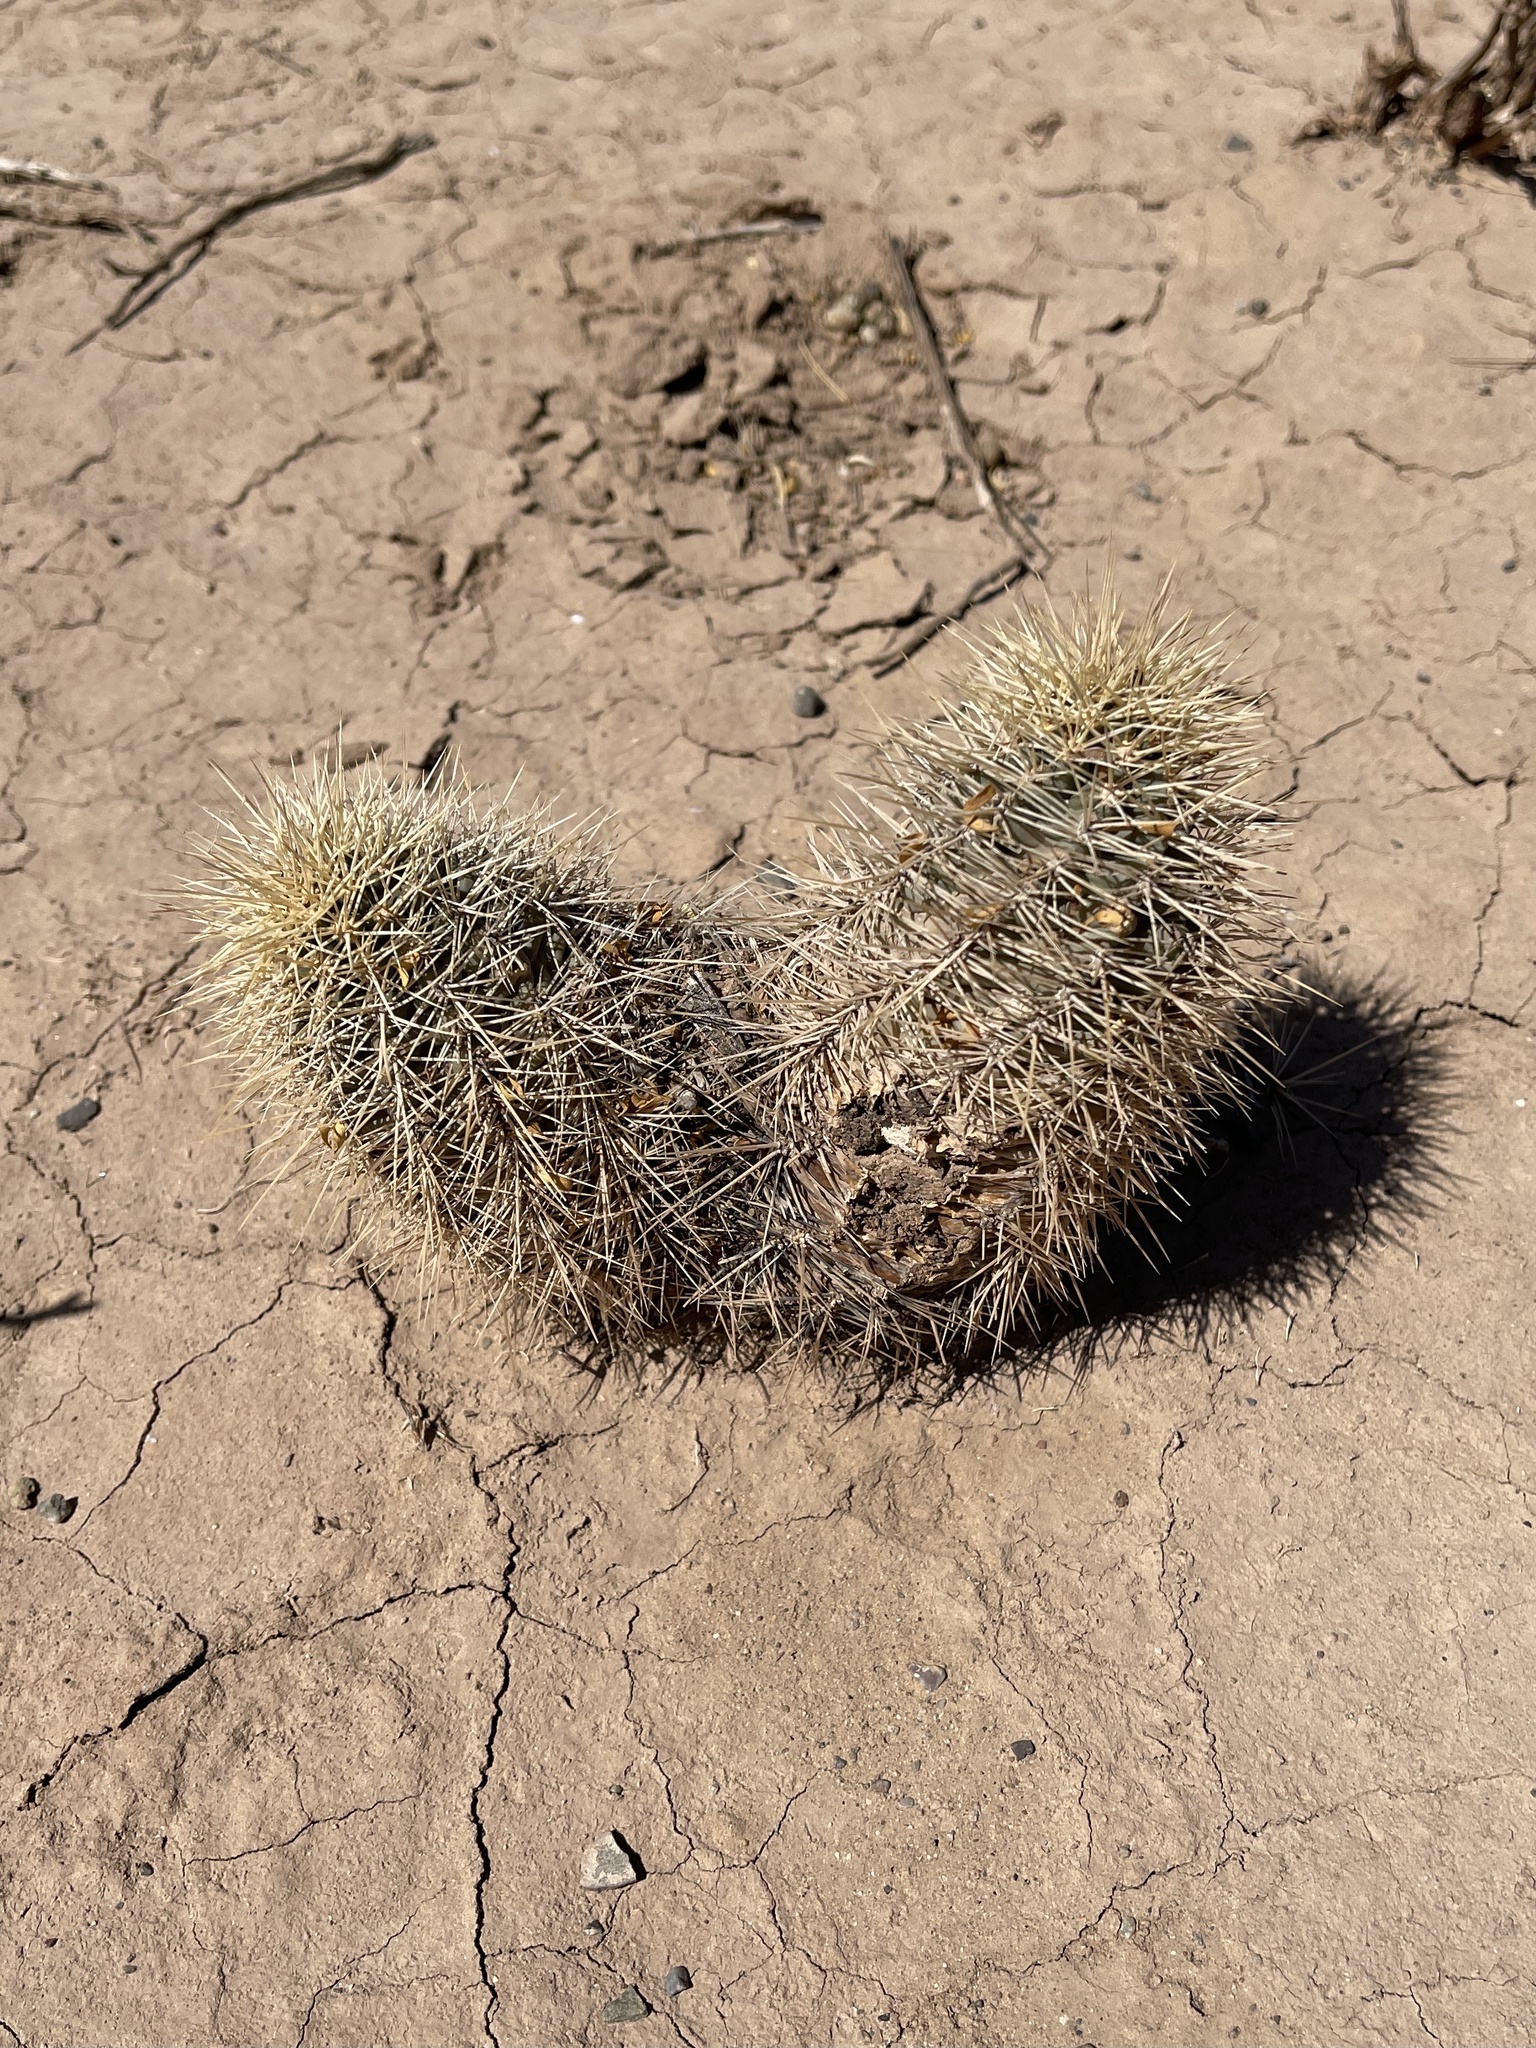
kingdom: Plantae
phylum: Tracheophyta
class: Magnoliopsida
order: Caryophyllales
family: Cactaceae
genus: Echinocereus
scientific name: Echinocereus coccineus
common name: Scarlet hedgehog cactus
